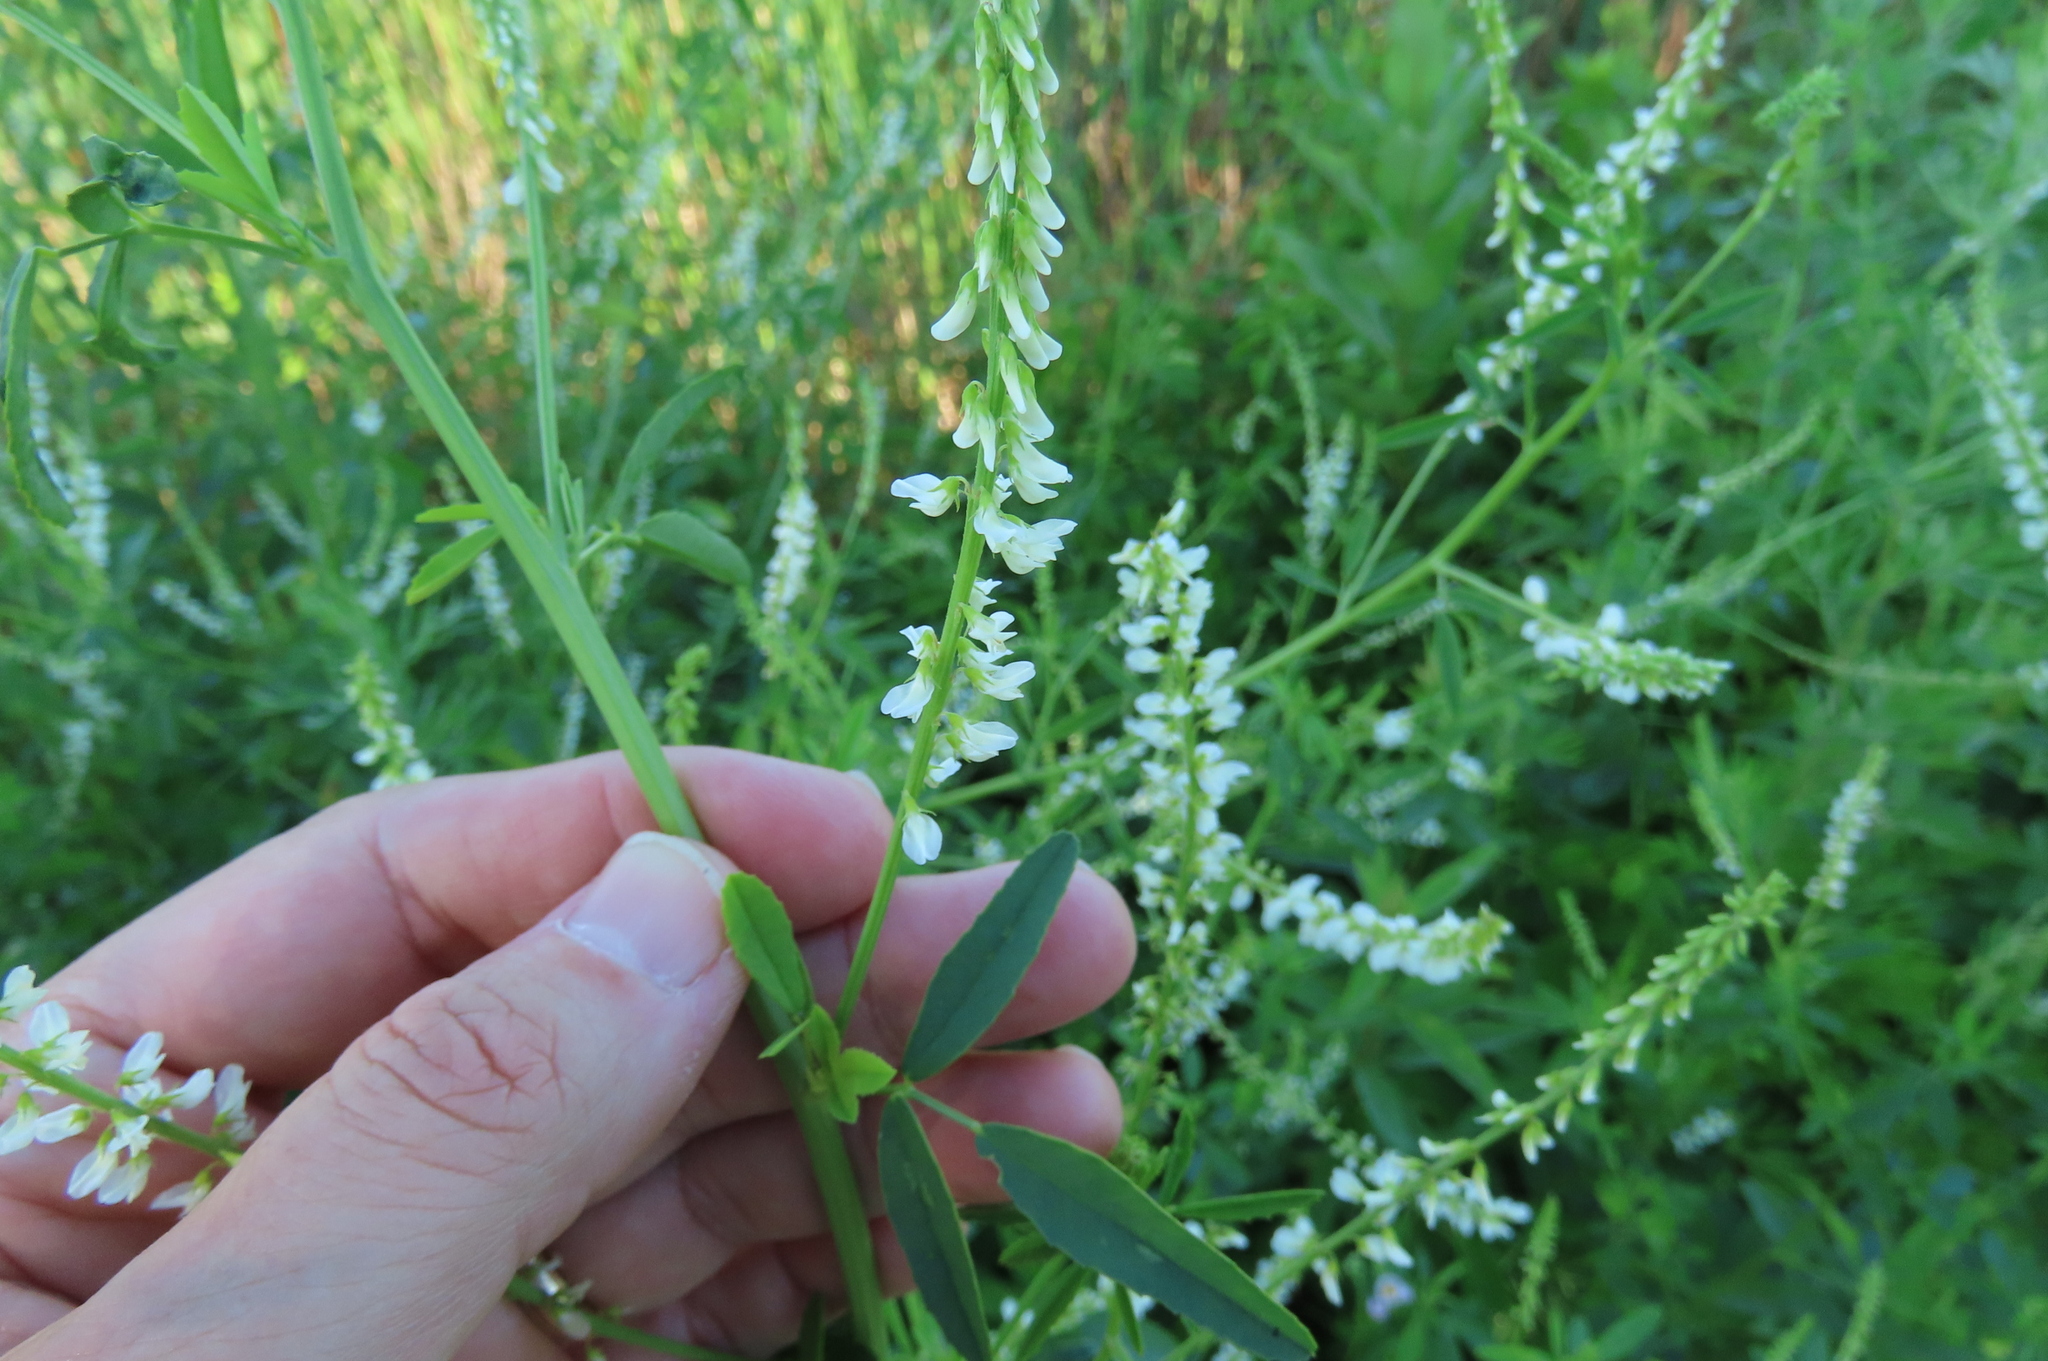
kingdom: Plantae
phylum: Tracheophyta
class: Magnoliopsida
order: Fabales
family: Fabaceae
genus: Melilotus
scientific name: Melilotus albus
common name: White melilot
